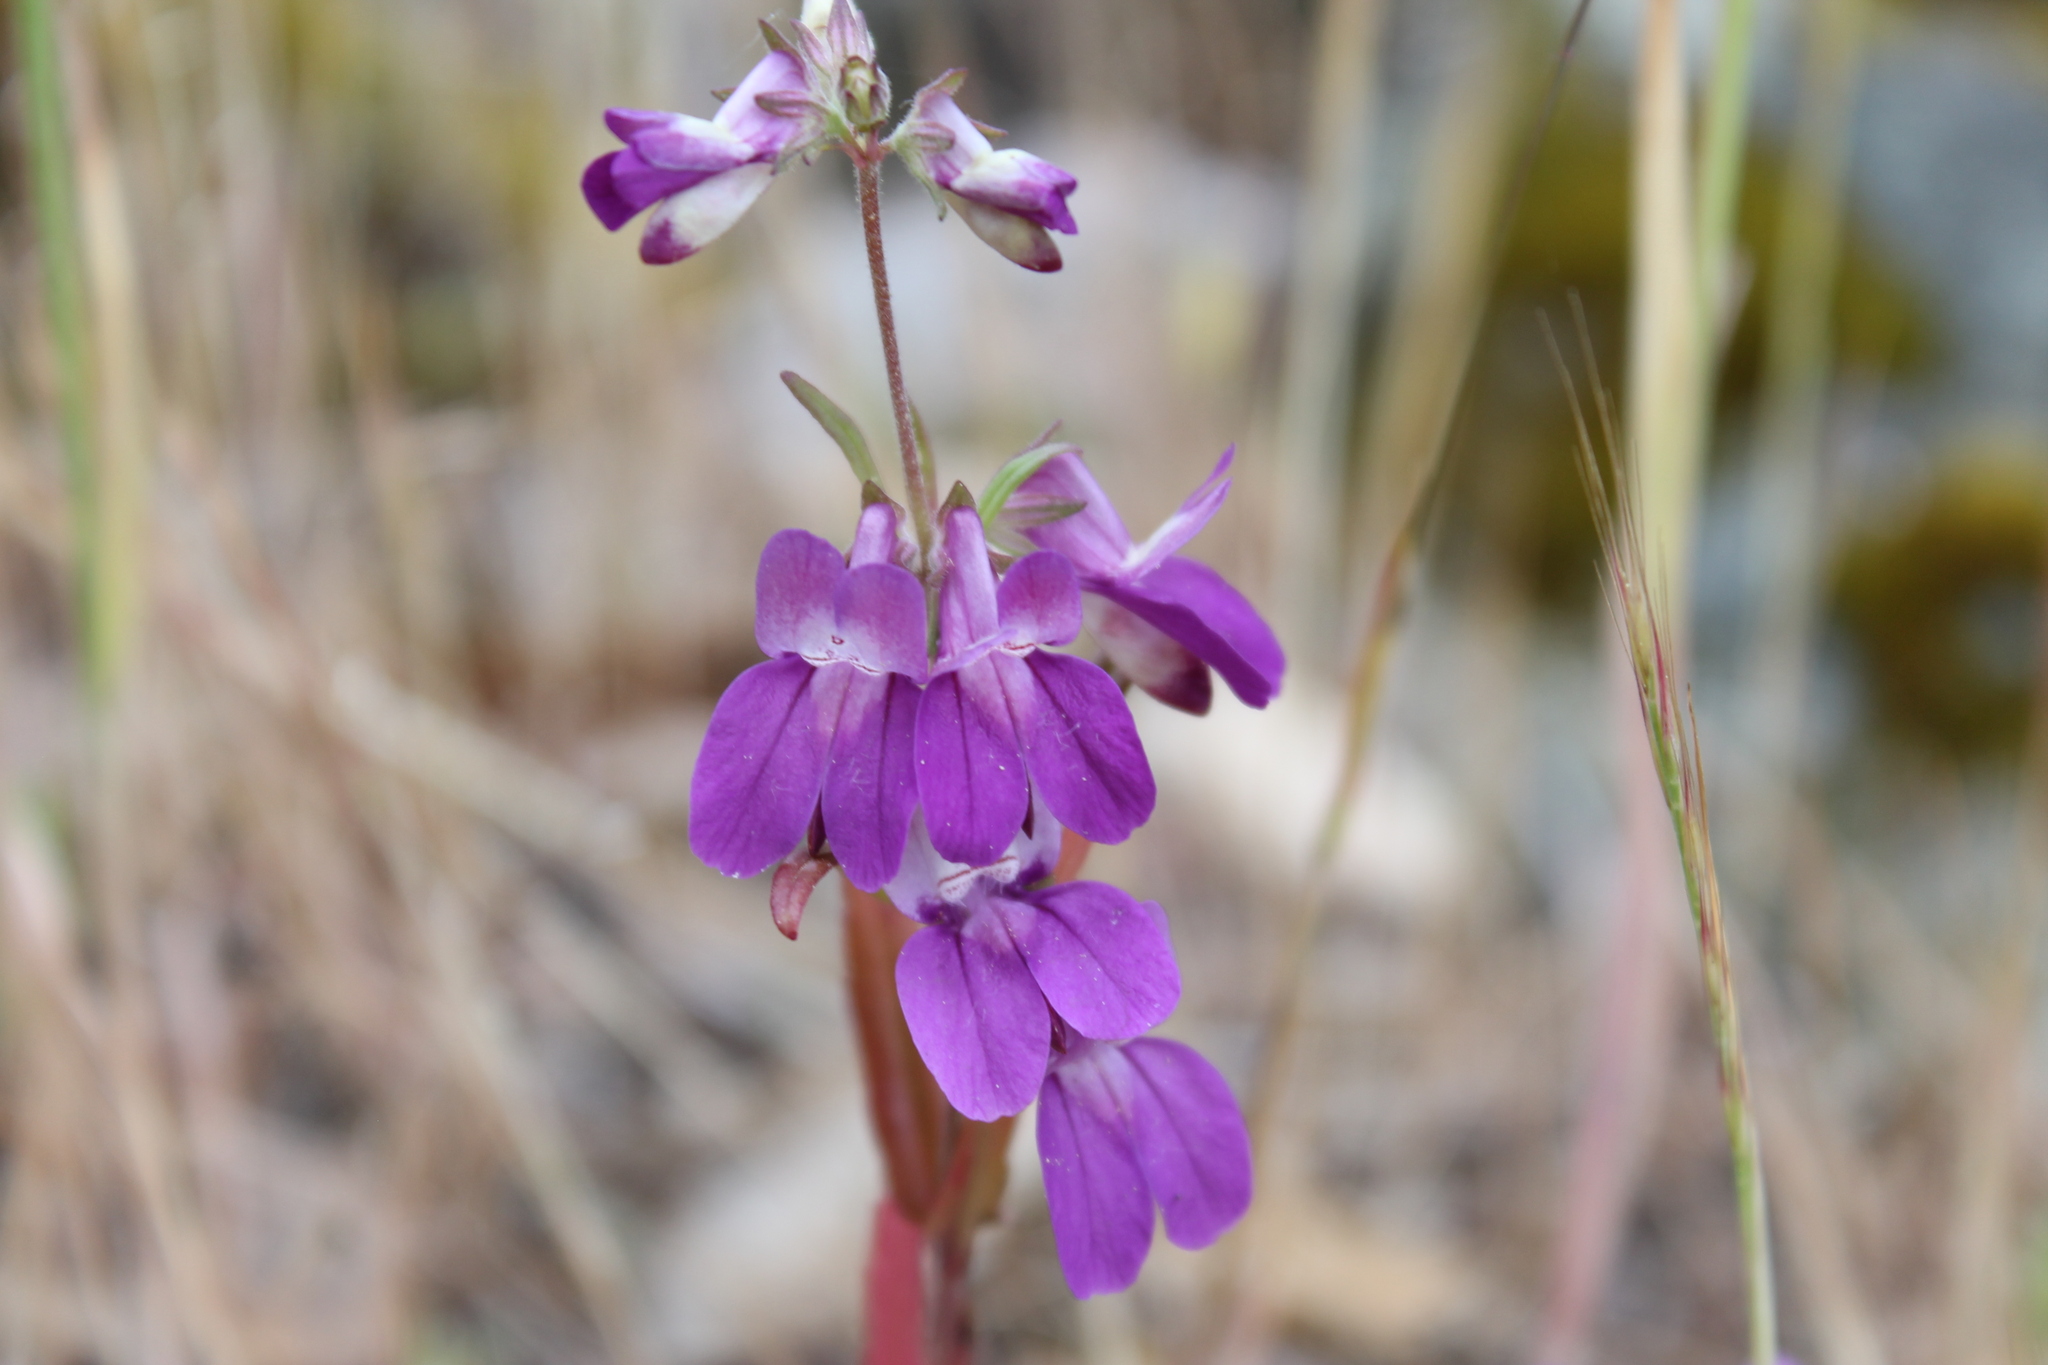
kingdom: Plantae
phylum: Tracheophyta
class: Magnoliopsida
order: Lamiales
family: Plantaginaceae
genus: Collinsia
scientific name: Collinsia heterophylla
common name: Chinese-houses
